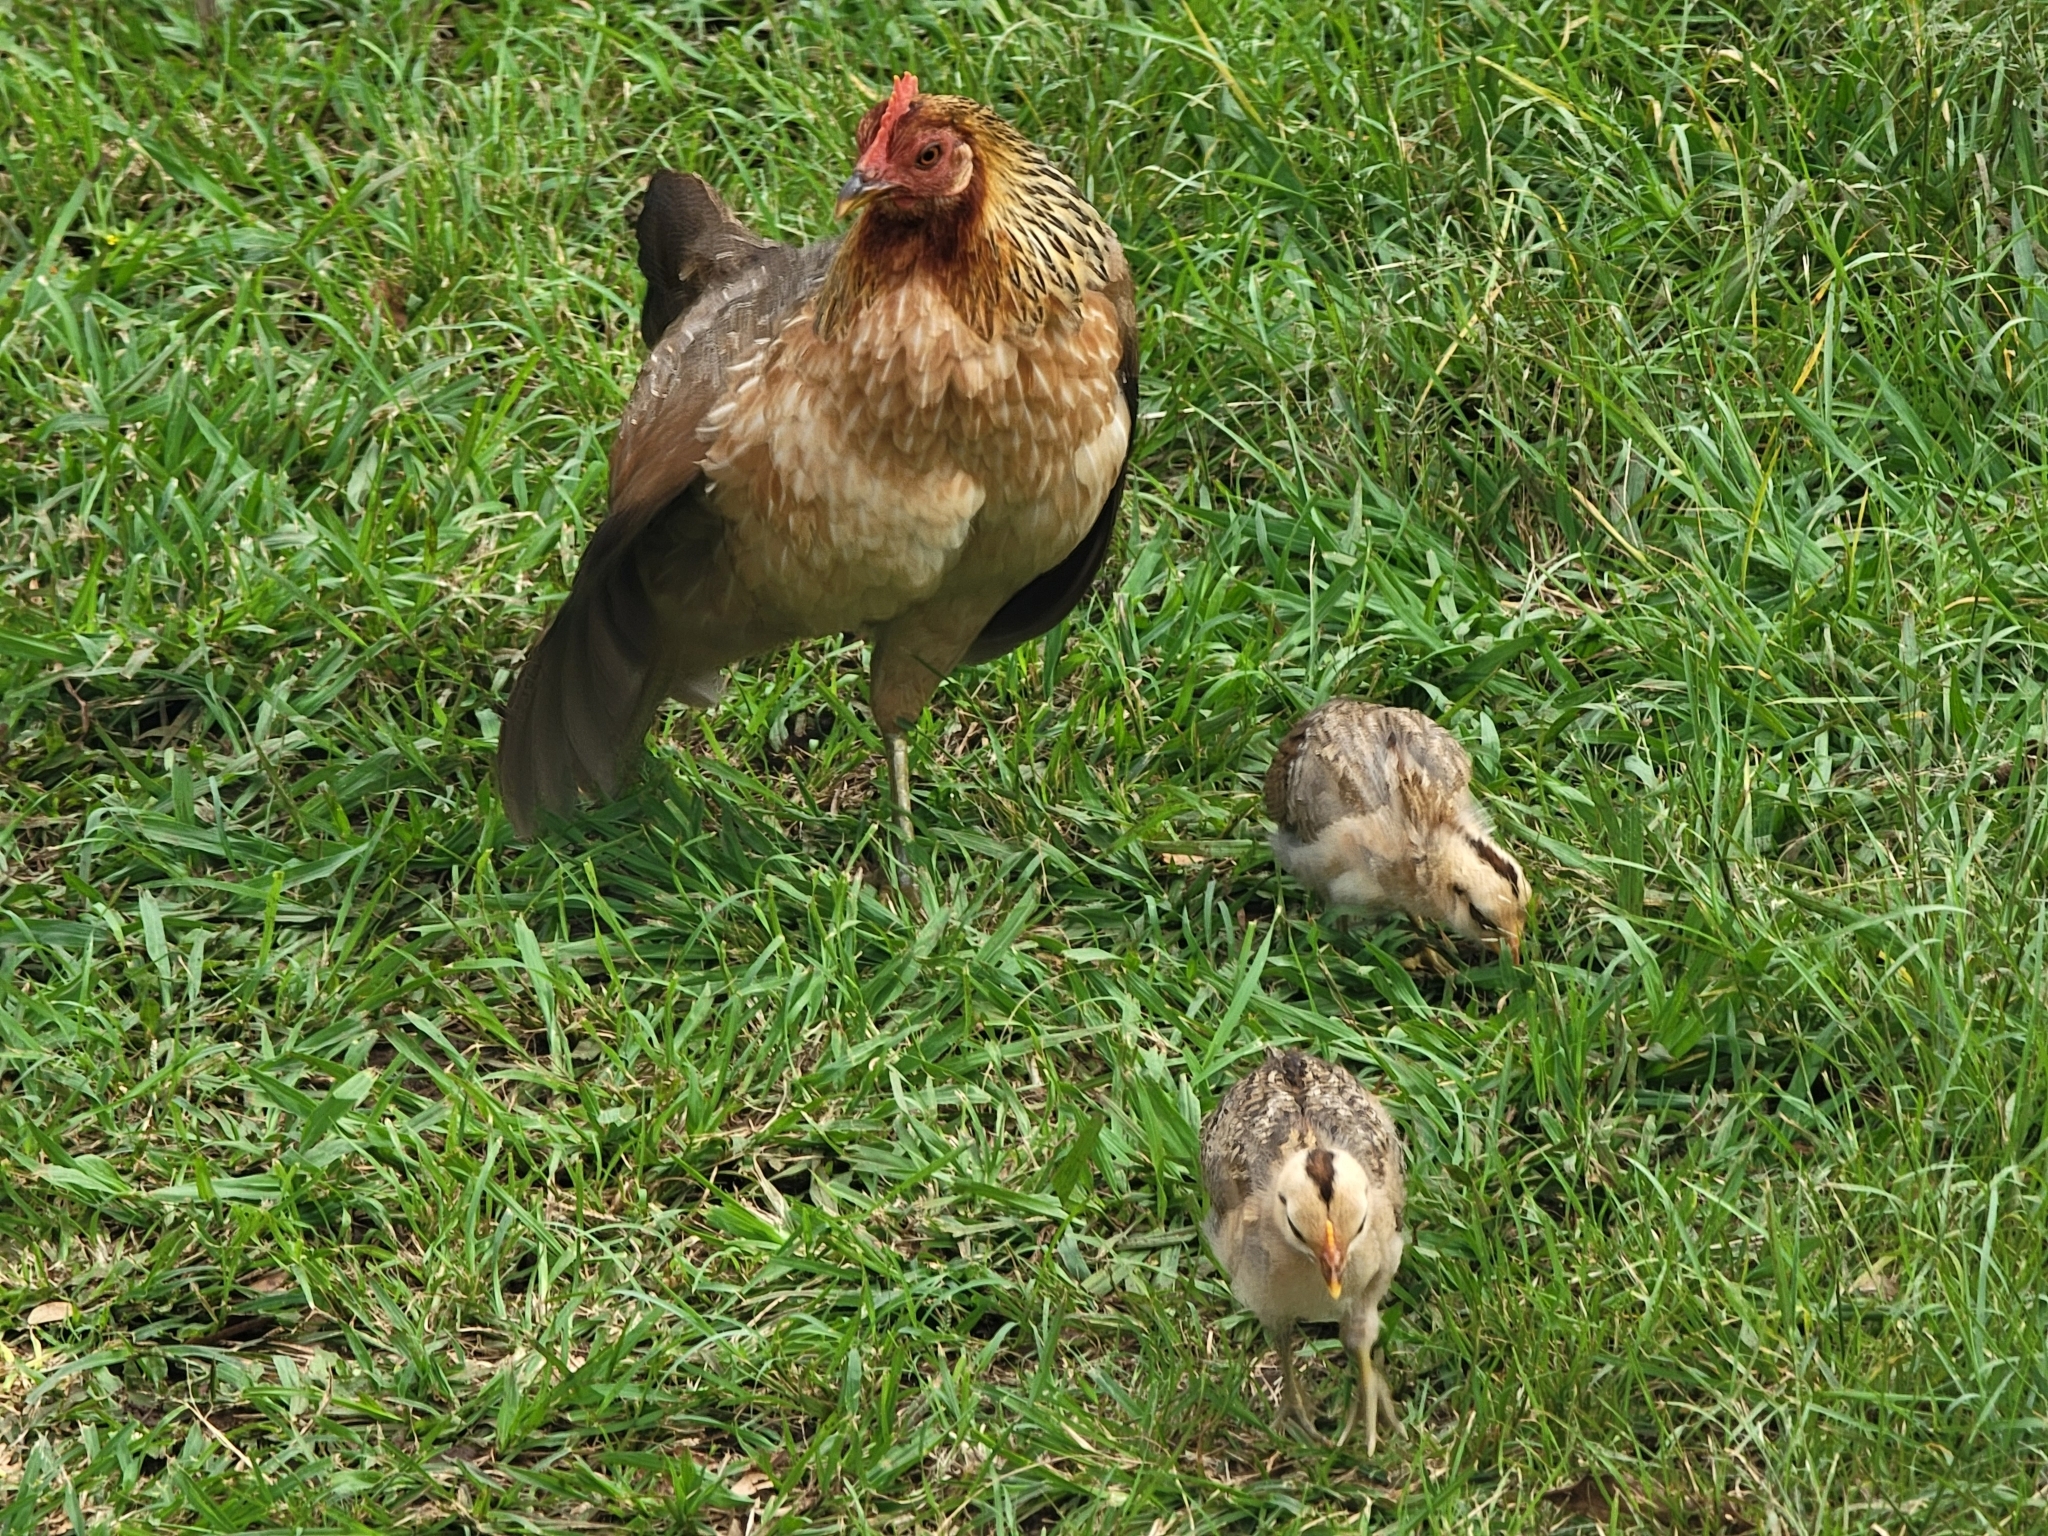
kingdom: Animalia
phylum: Chordata
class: Aves
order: Galliformes
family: Phasianidae
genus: Gallus
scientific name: Gallus gallus
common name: Red junglefowl
